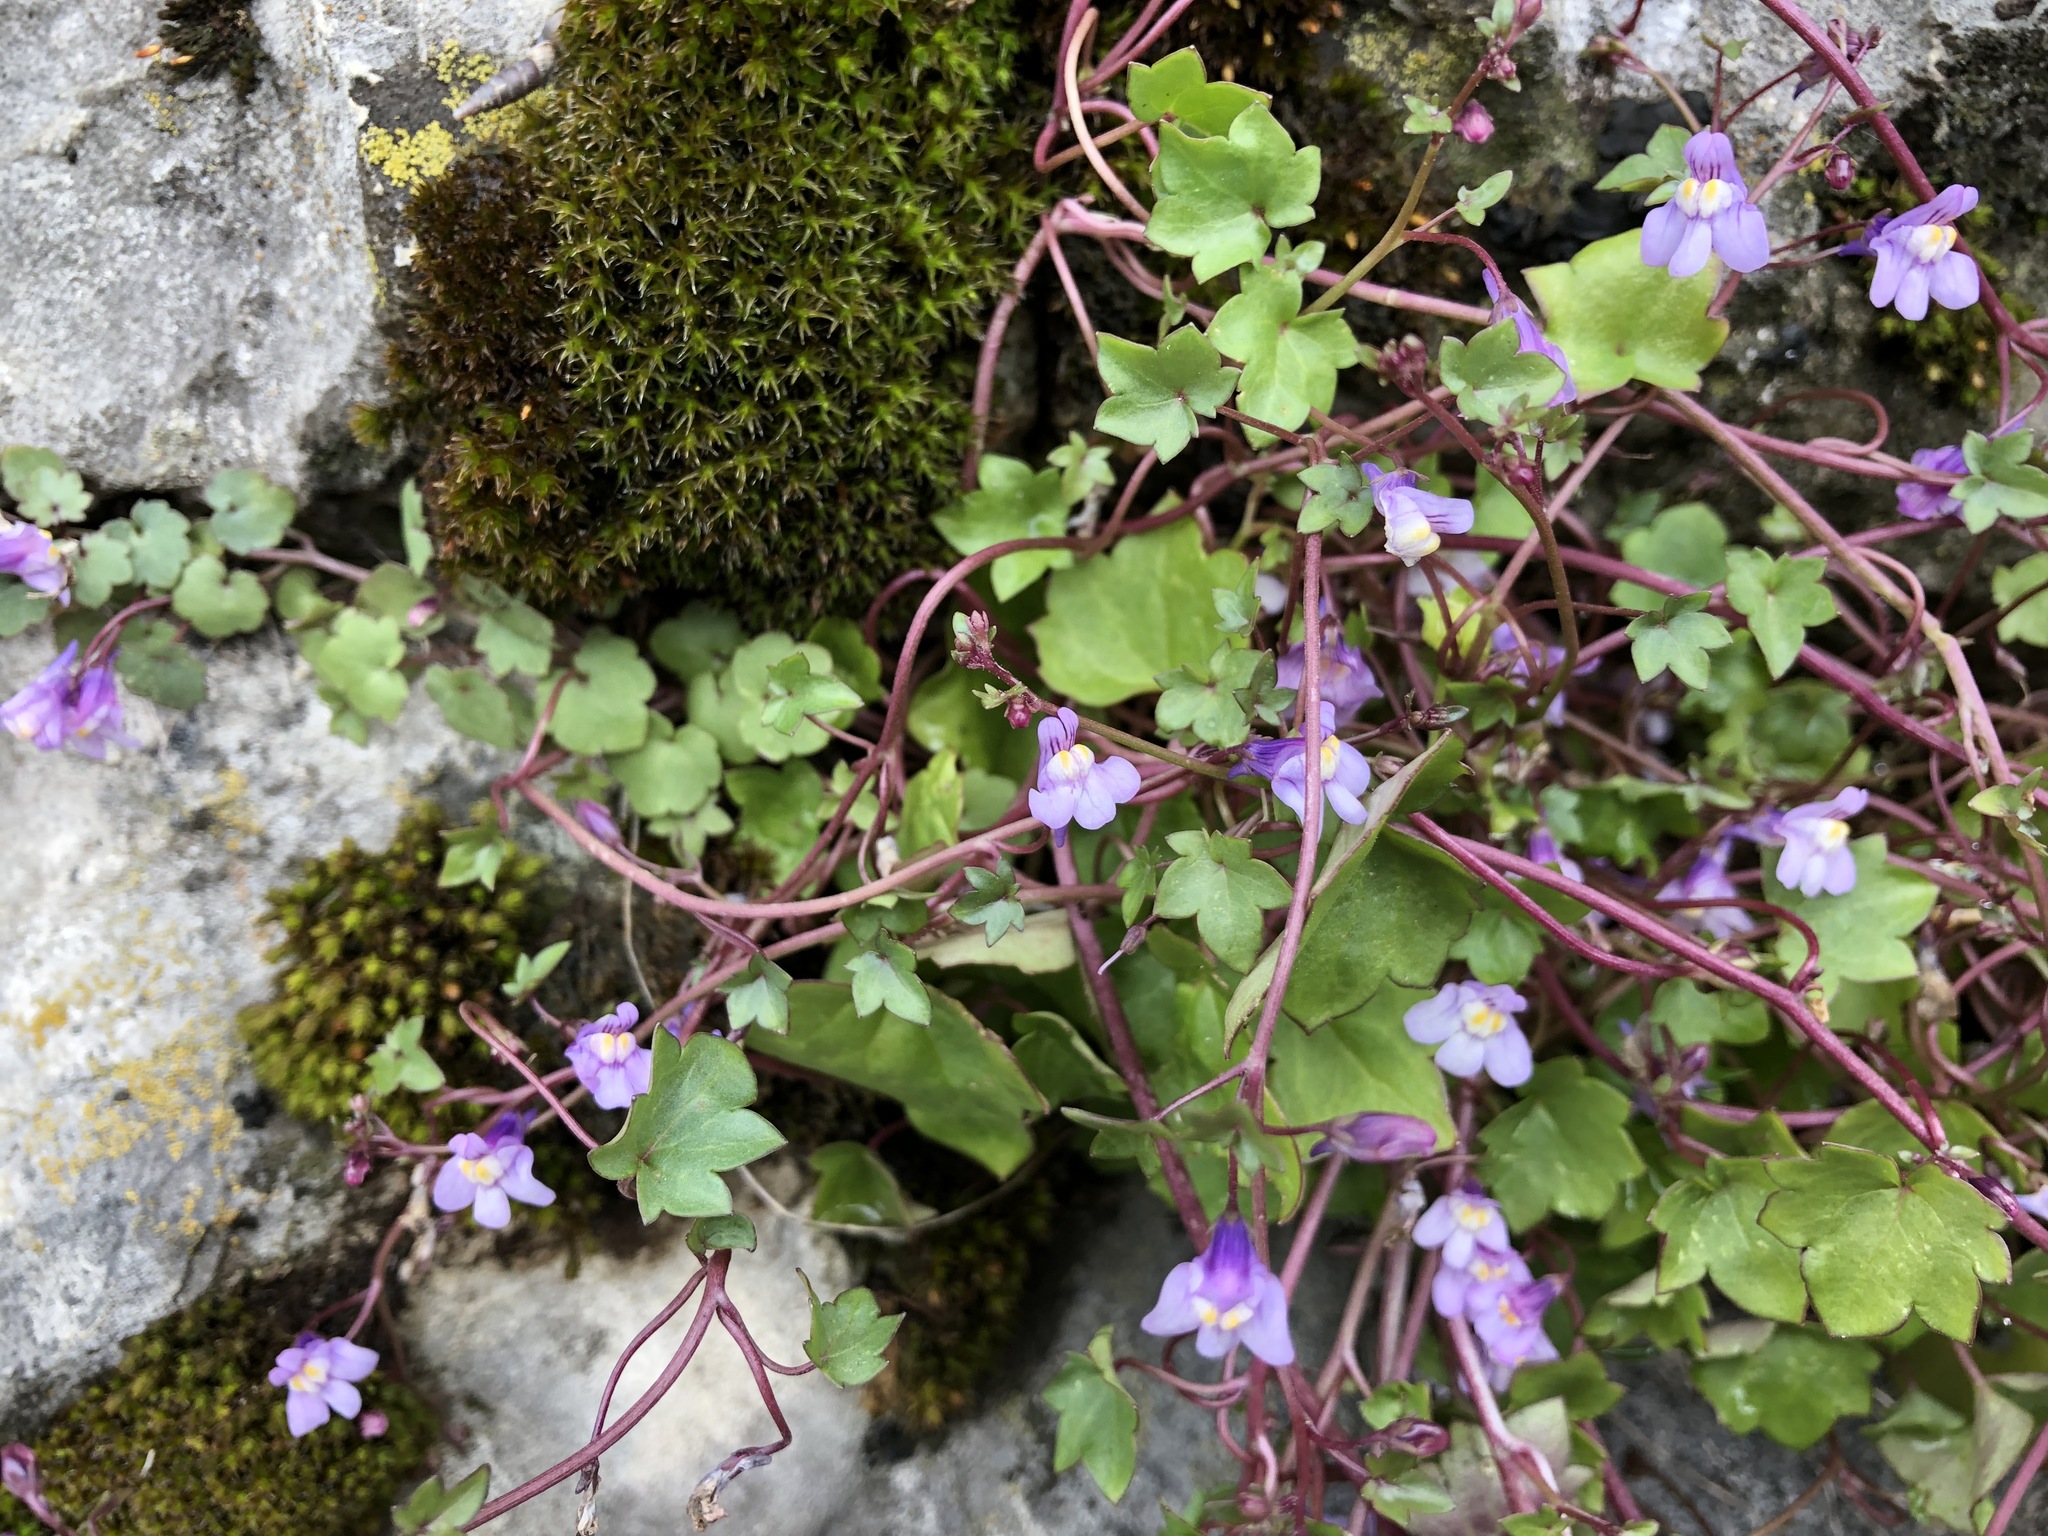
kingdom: Plantae
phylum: Tracheophyta
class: Magnoliopsida
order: Lamiales
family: Plantaginaceae
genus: Cymbalaria
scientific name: Cymbalaria muralis
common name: Ivy-leaved toadflax
